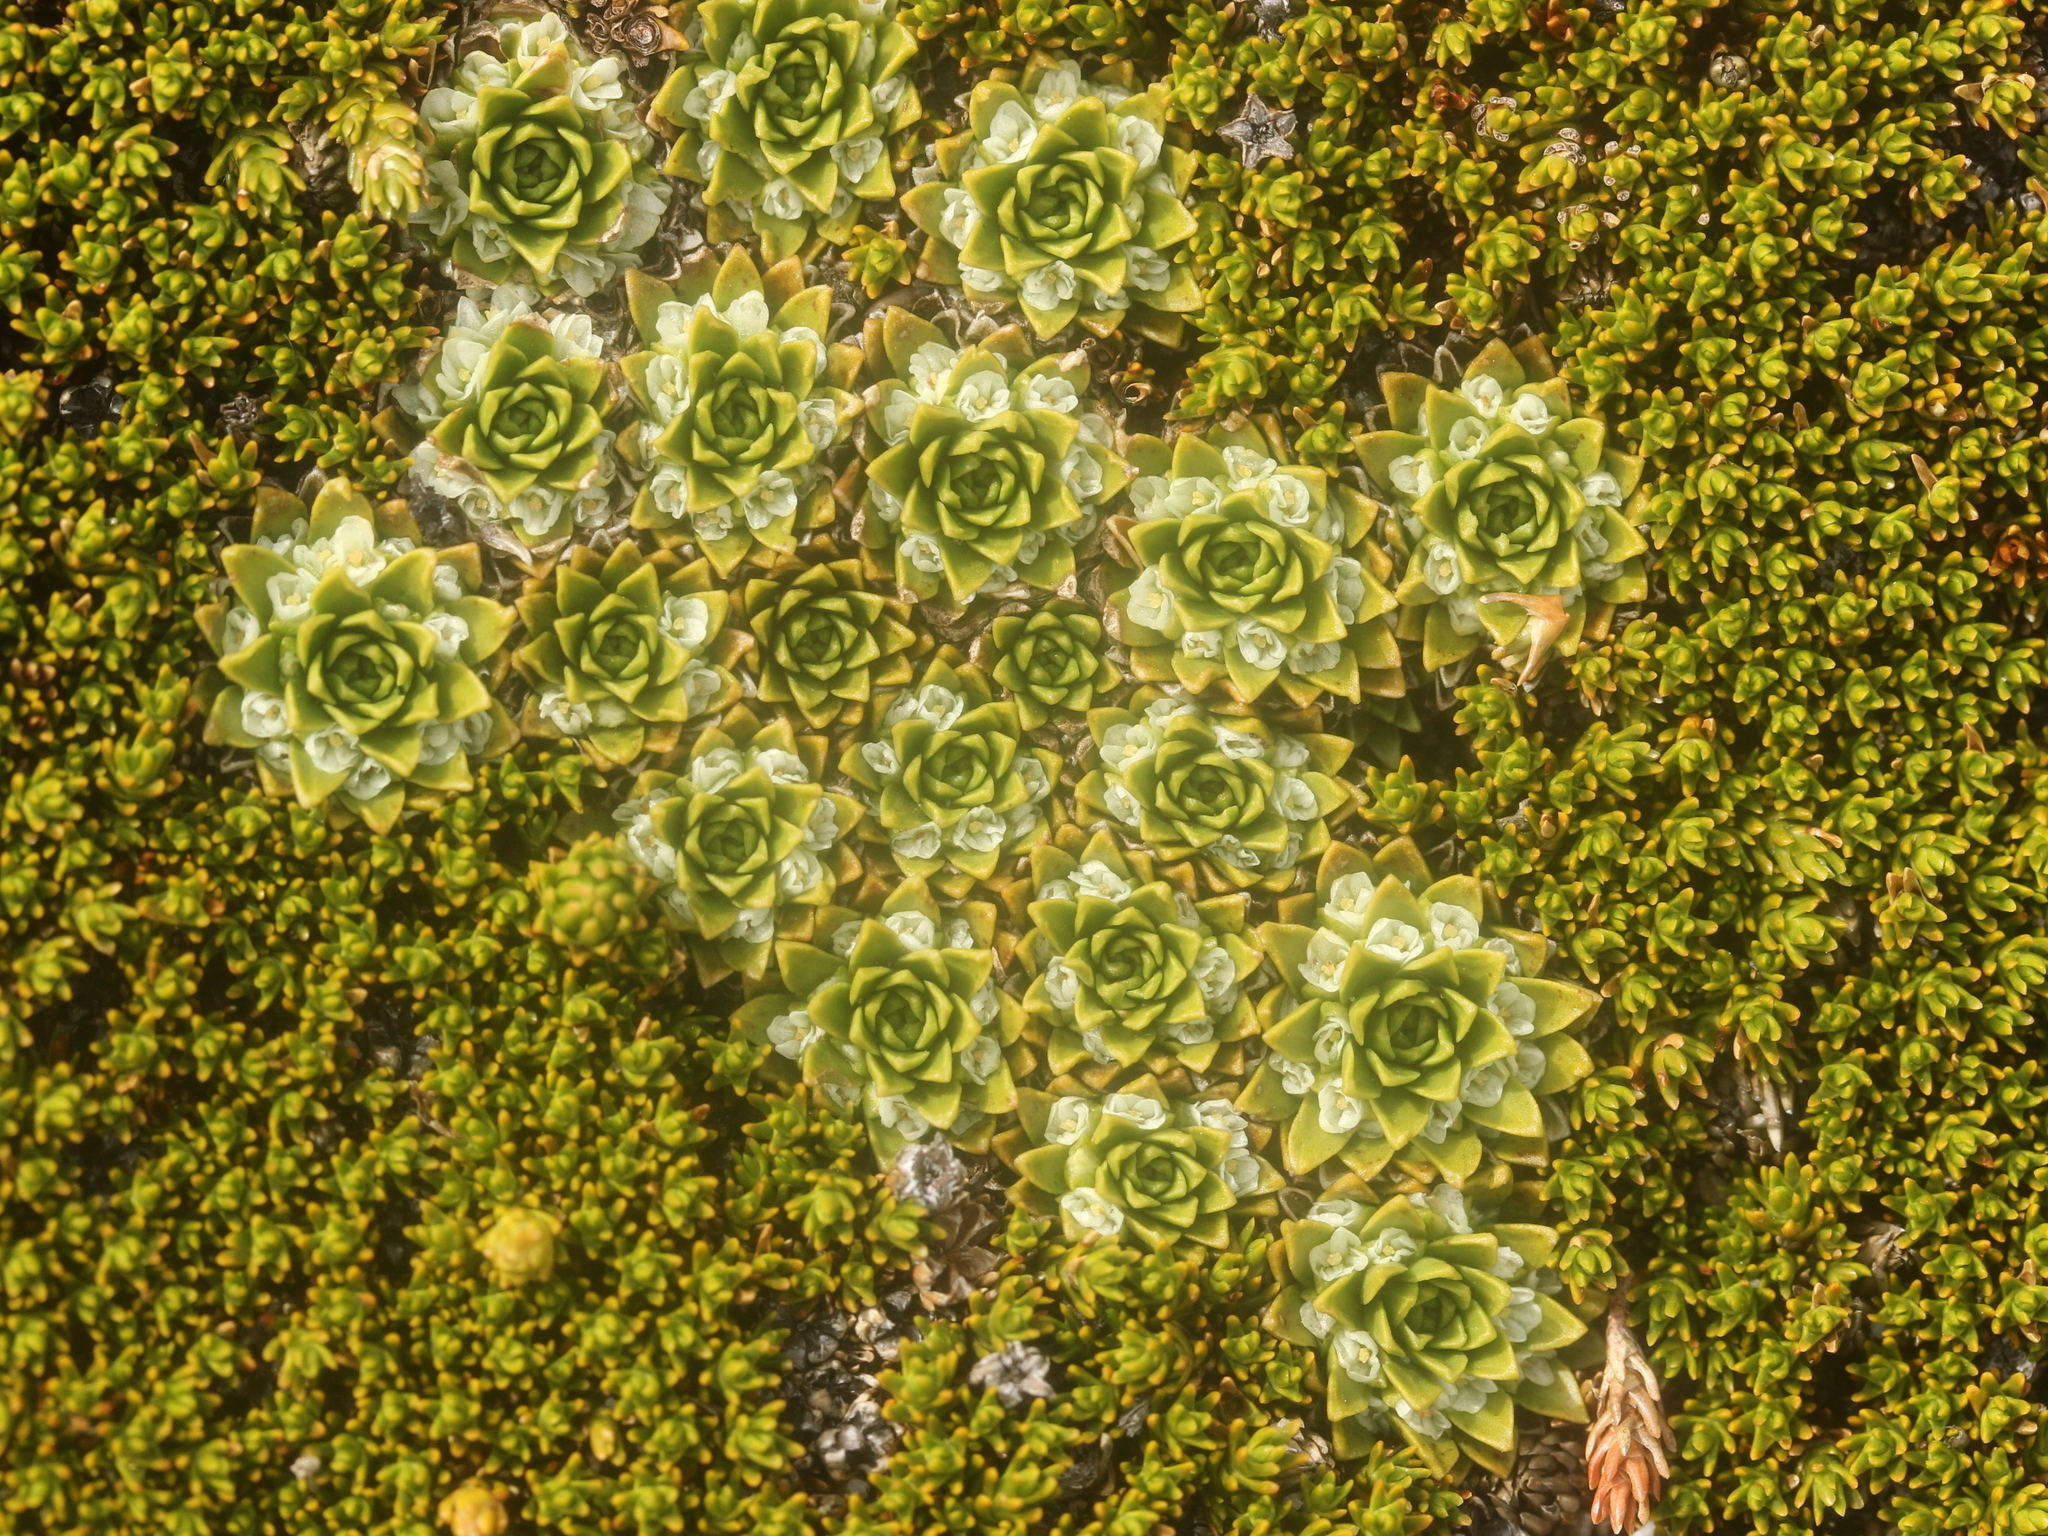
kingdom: Plantae
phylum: Tracheophyta
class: Magnoliopsida
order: Caryophyllales
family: Montiaceae
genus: Hectorella
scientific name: Hectorella caespitosa
